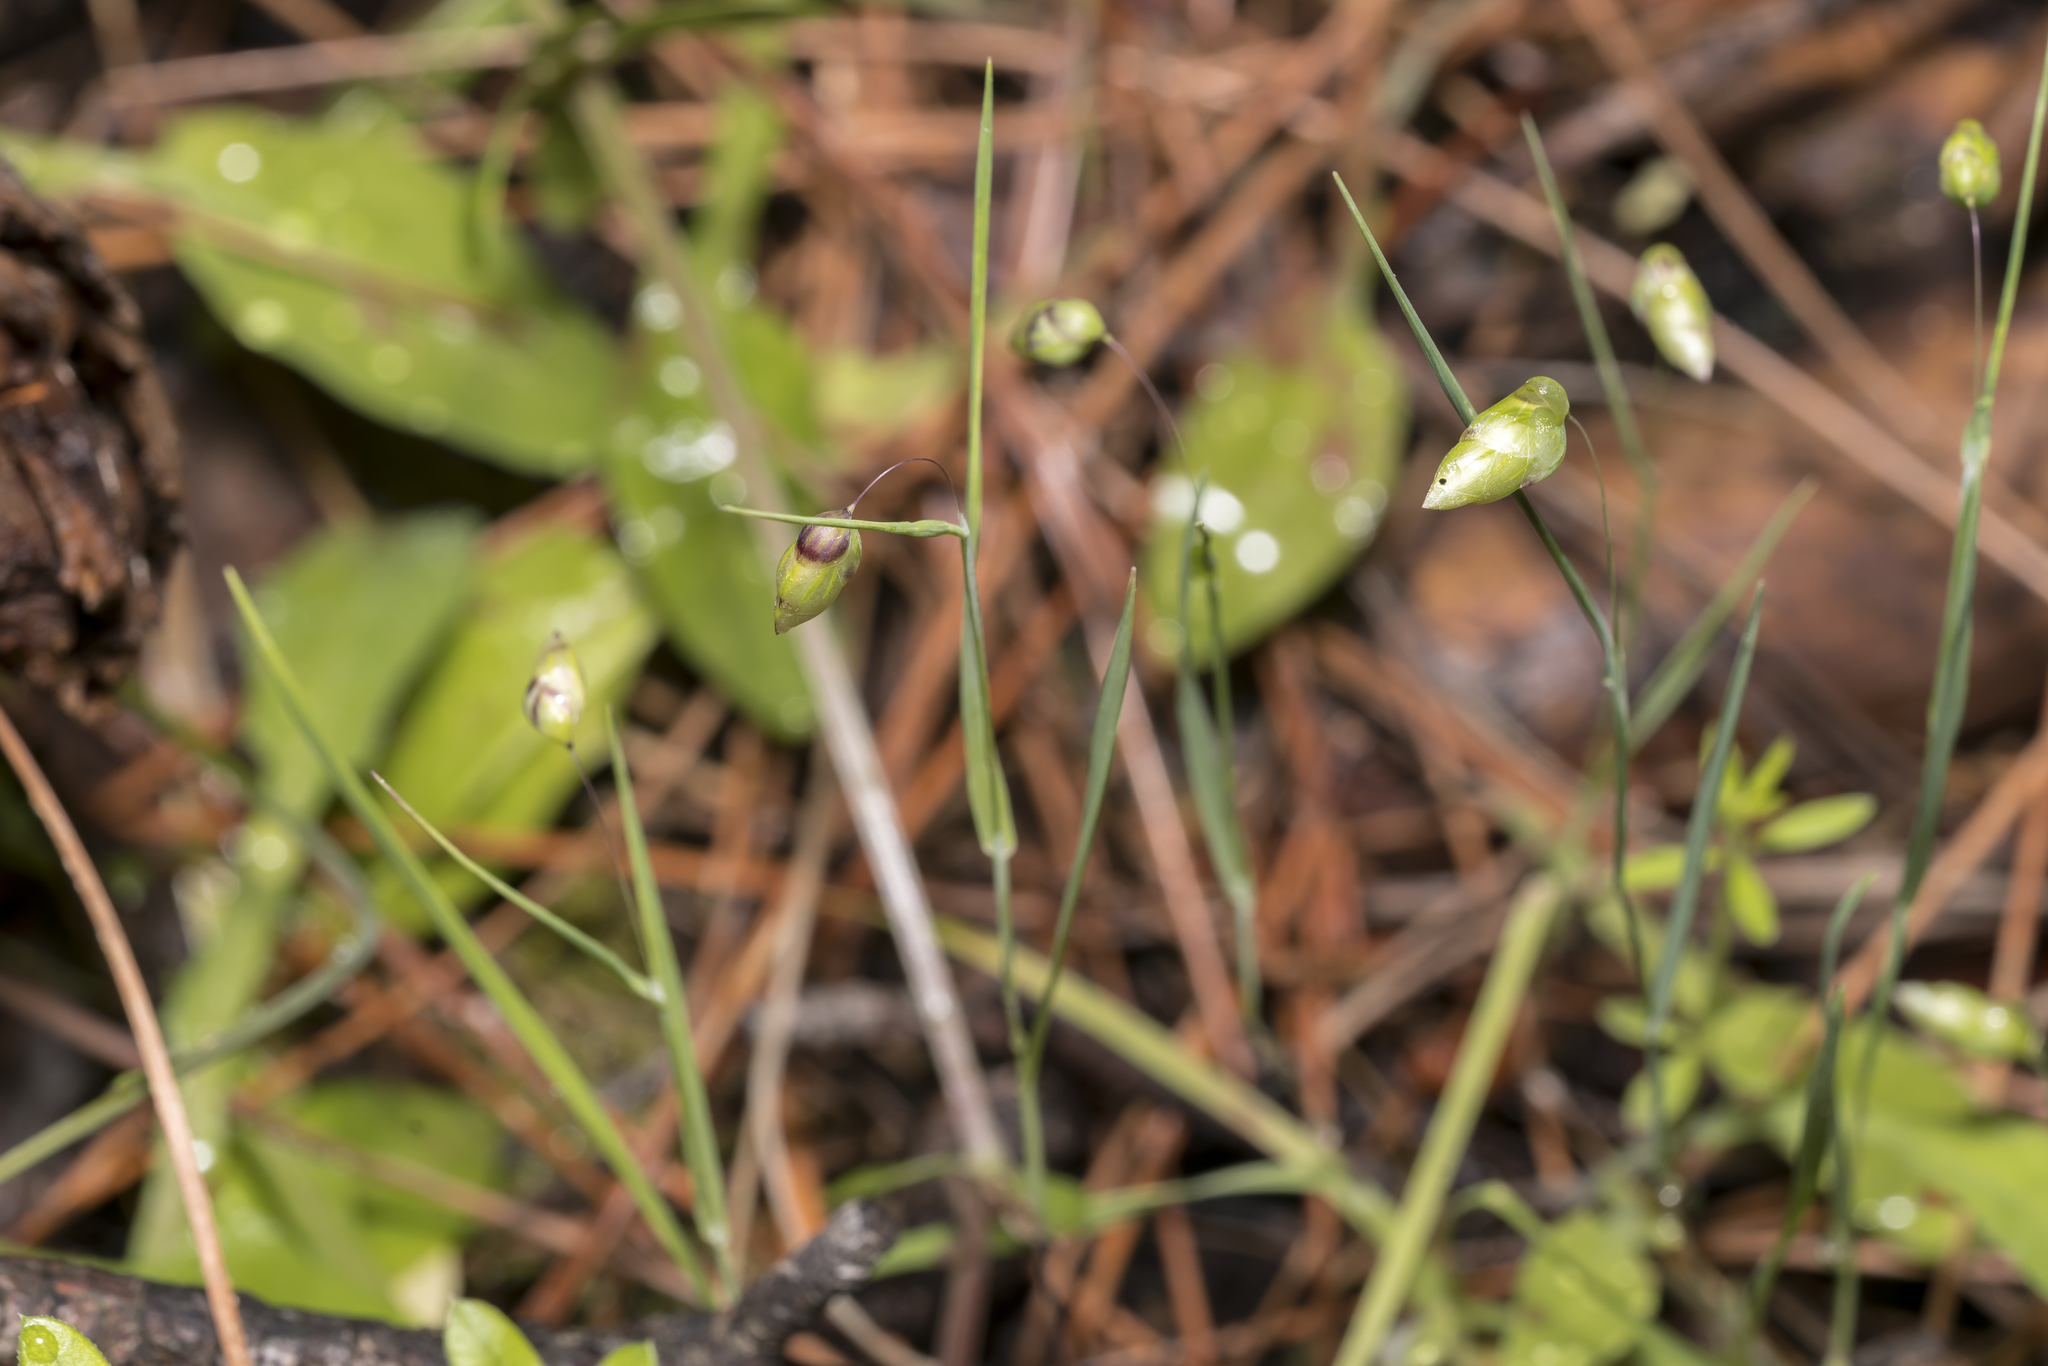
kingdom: Plantae
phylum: Tracheophyta
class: Liliopsida
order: Poales
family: Poaceae
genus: Briza
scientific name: Briza maxima
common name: Big quakinggrass
